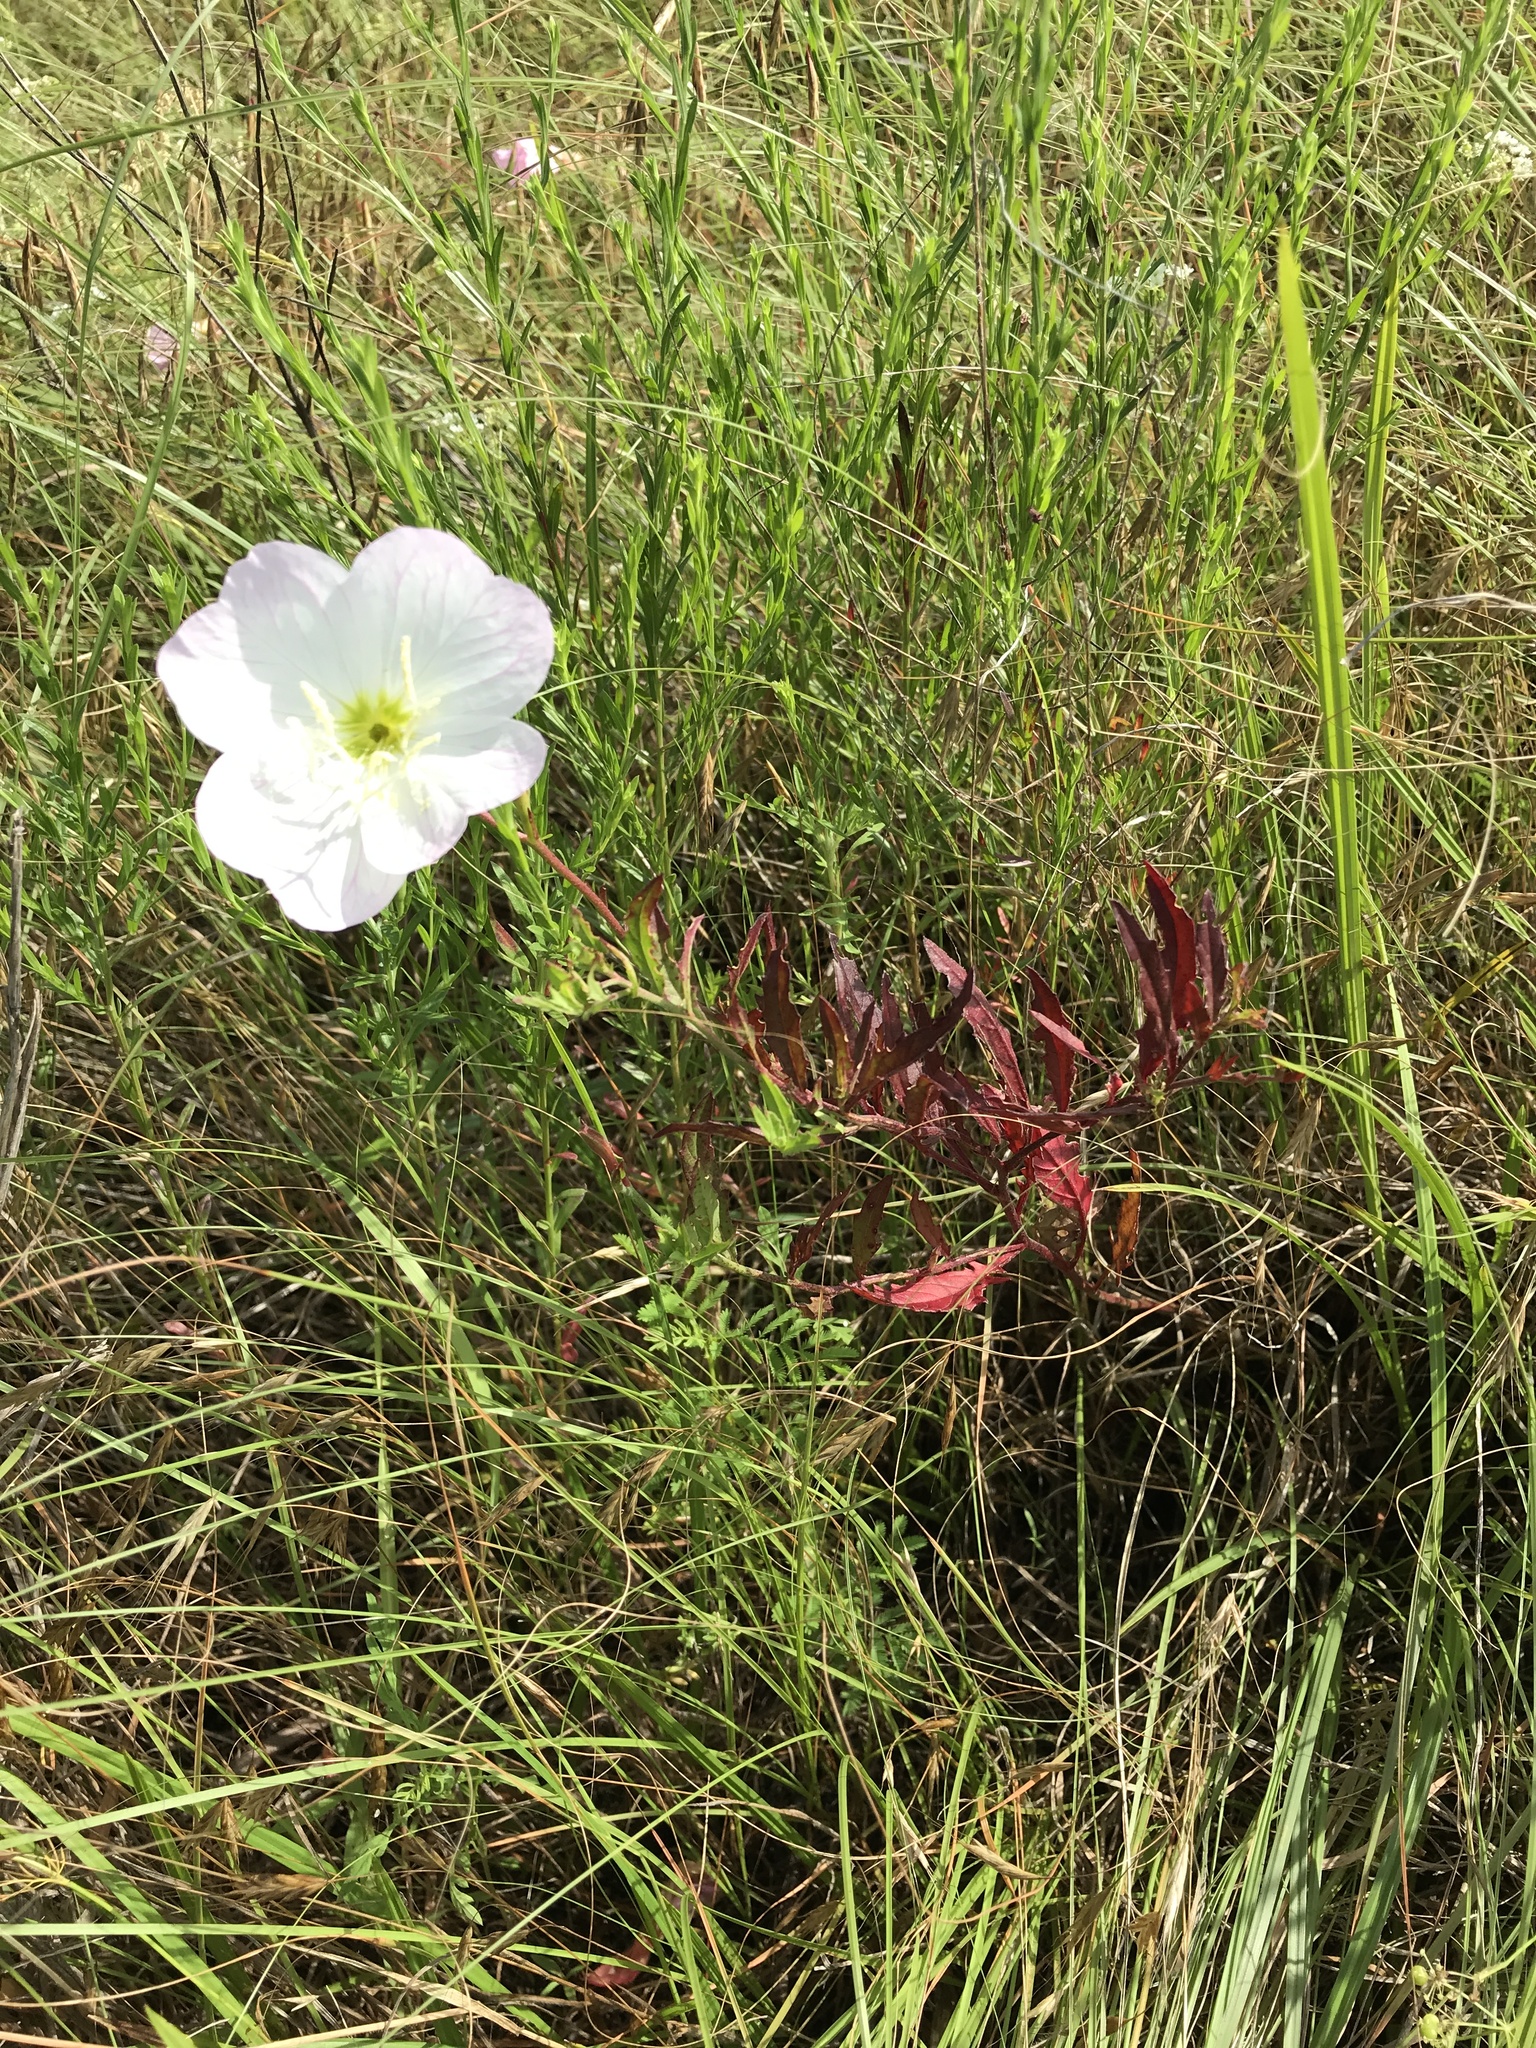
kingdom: Plantae
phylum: Tracheophyta
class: Magnoliopsida
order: Myrtales
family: Onagraceae
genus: Oenothera
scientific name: Oenothera speciosa
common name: White evening-primrose
